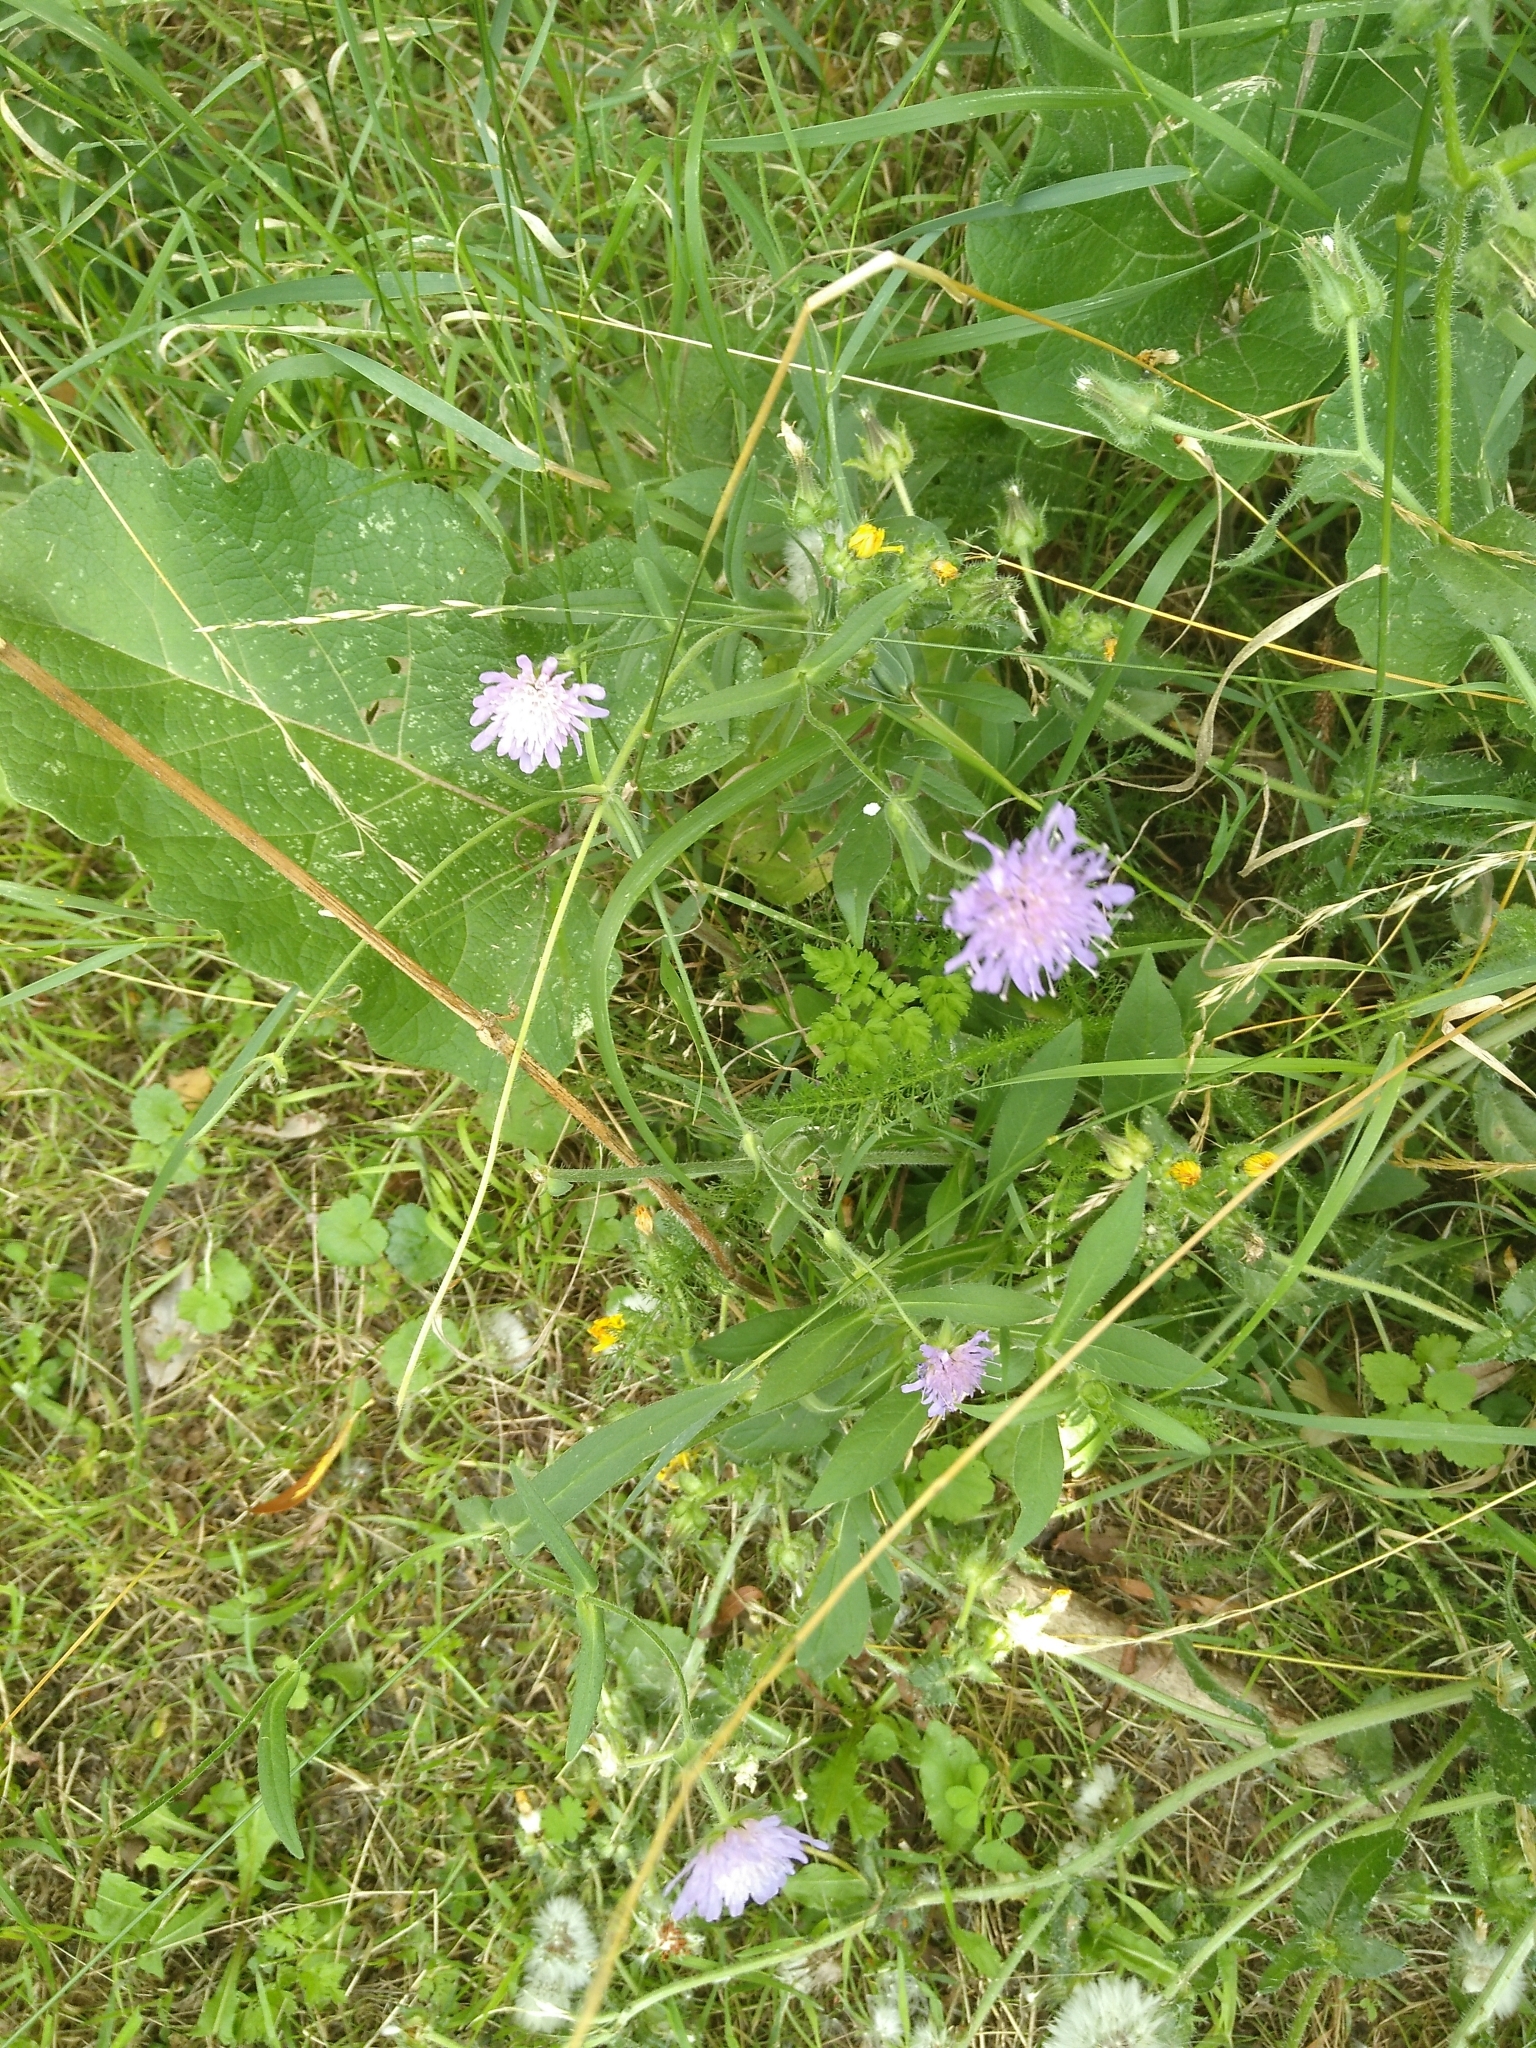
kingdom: Plantae
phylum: Tracheophyta
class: Magnoliopsida
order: Dipsacales
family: Caprifoliaceae
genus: Knautia
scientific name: Knautia arvensis
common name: Field scabiosa
